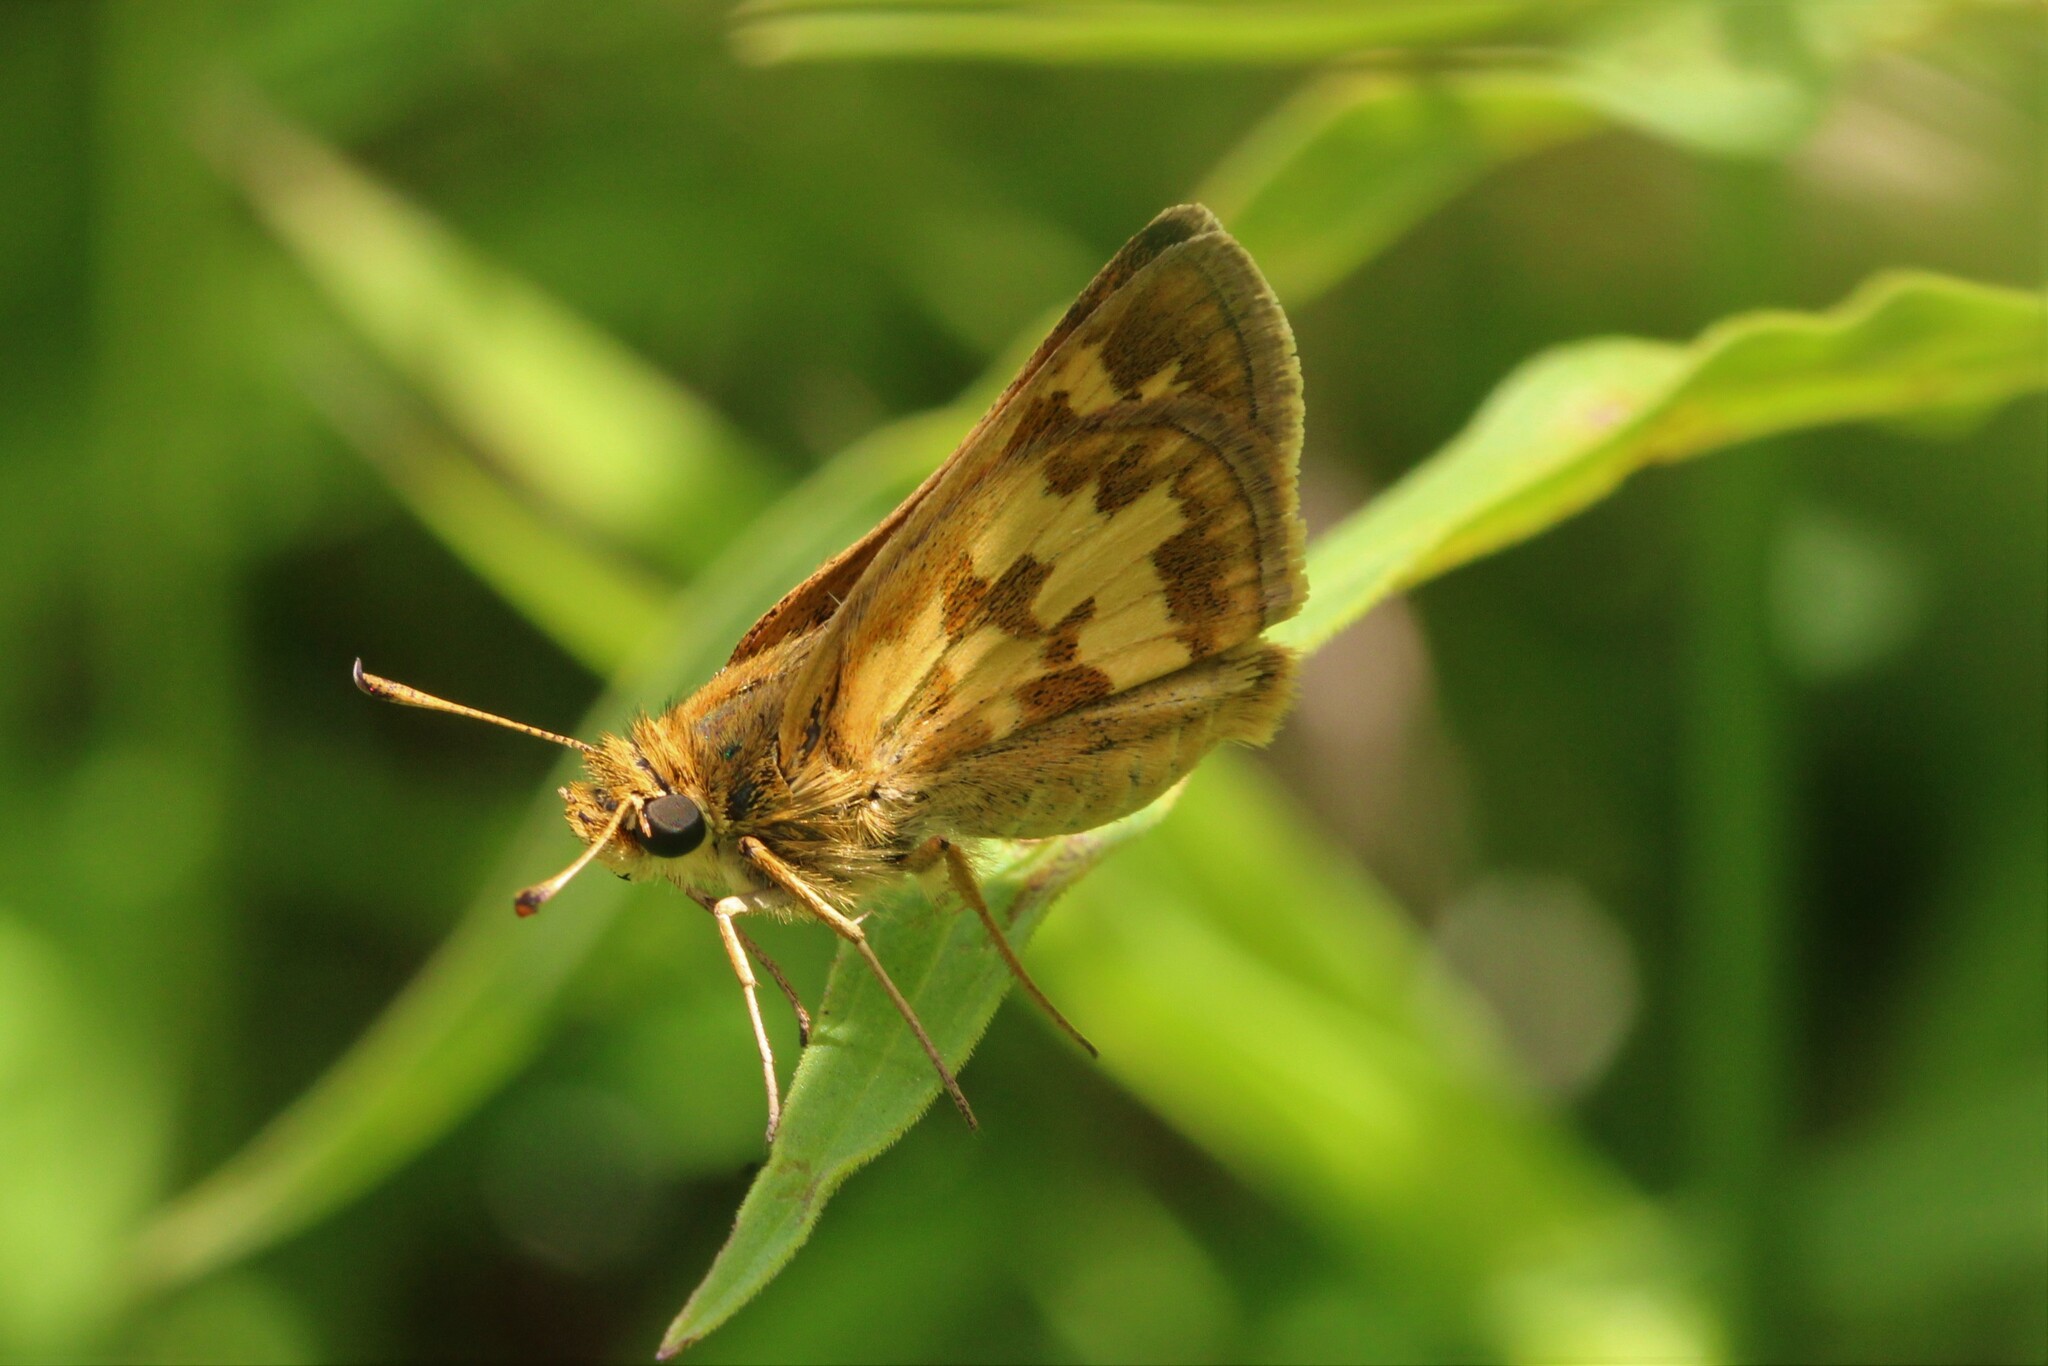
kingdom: Animalia
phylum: Arthropoda
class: Insecta
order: Lepidoptera
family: Hesperiidae
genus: Polites
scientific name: Polites coras
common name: Peck's skipper
